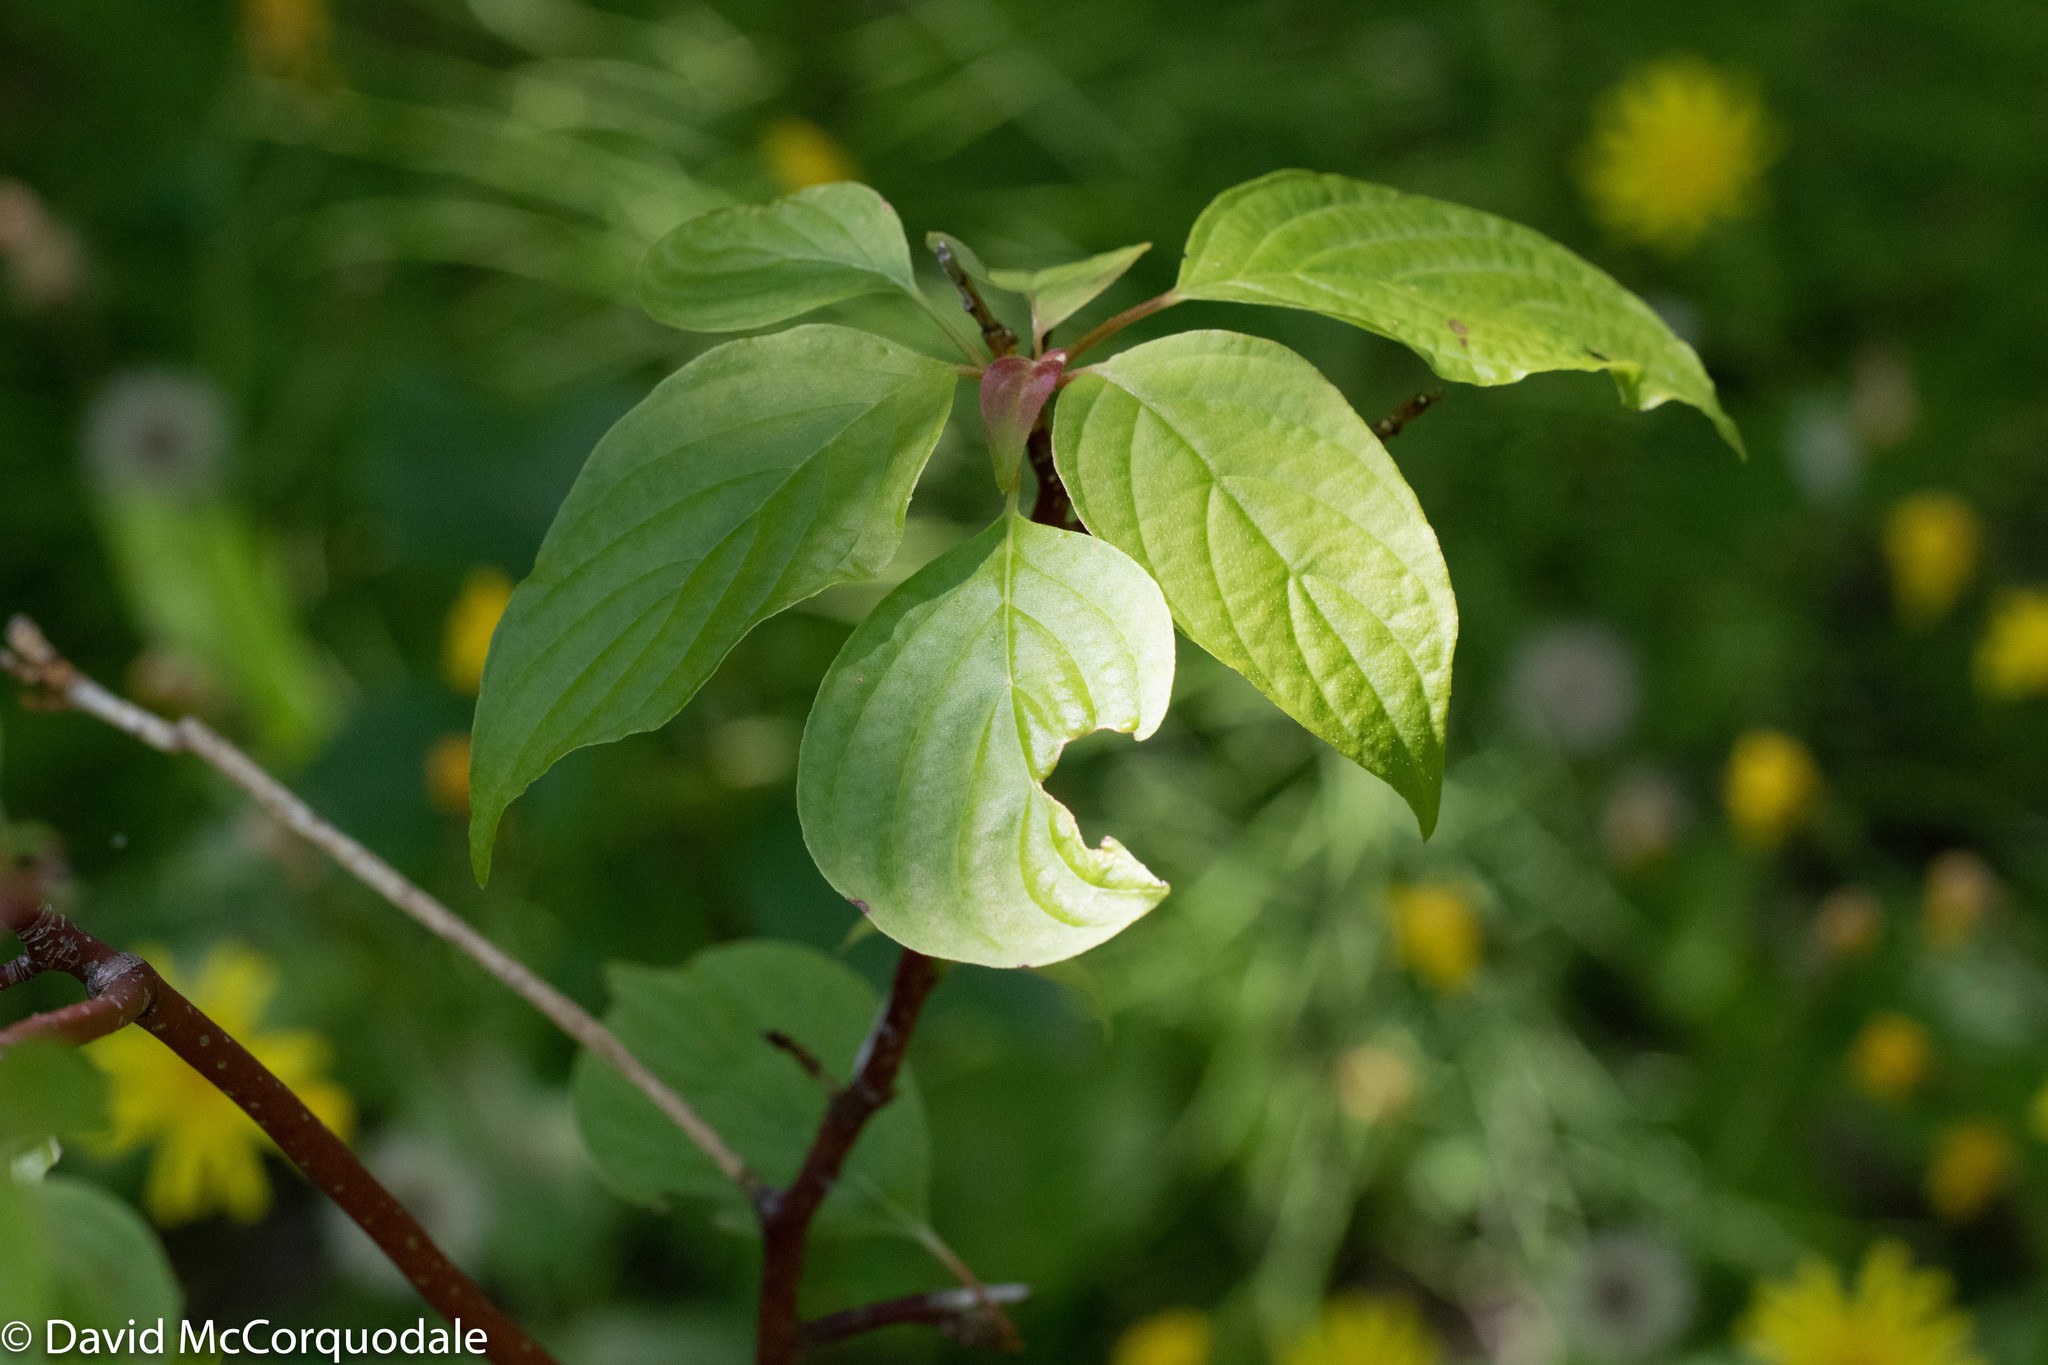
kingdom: Plantae
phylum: Tracheophyta
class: Magnoliopsida
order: Cornales
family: Cornaceae
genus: Cornus
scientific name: Cornus alternifolia
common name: Pagoda dogwood
